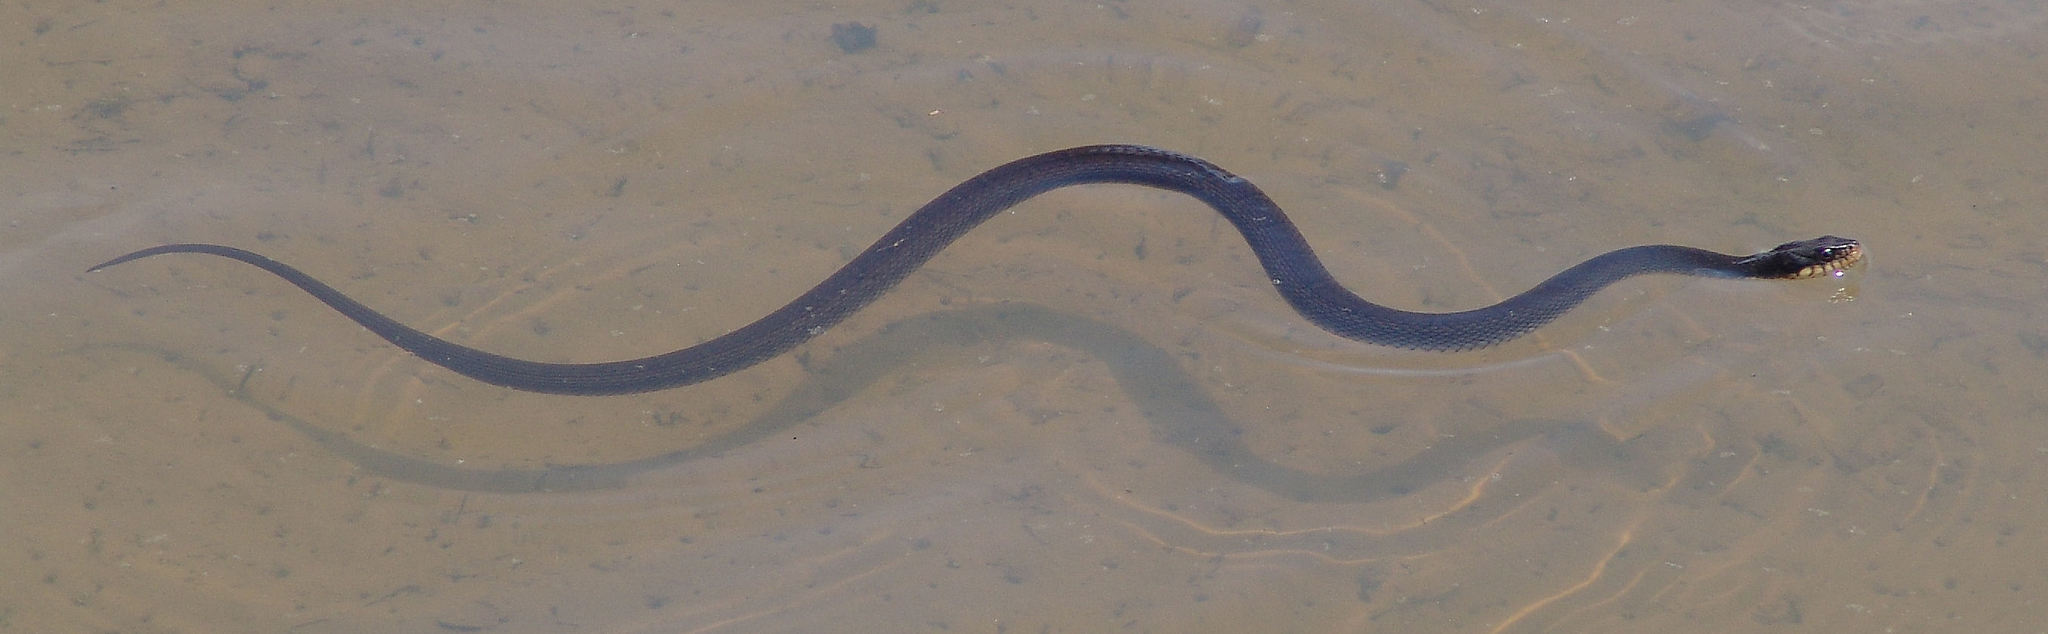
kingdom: Animalia
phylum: Chordata
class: Squamata
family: Colubridae
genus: Nerodia
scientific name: Nerodia erythrogaster
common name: Plainbelly water snake
